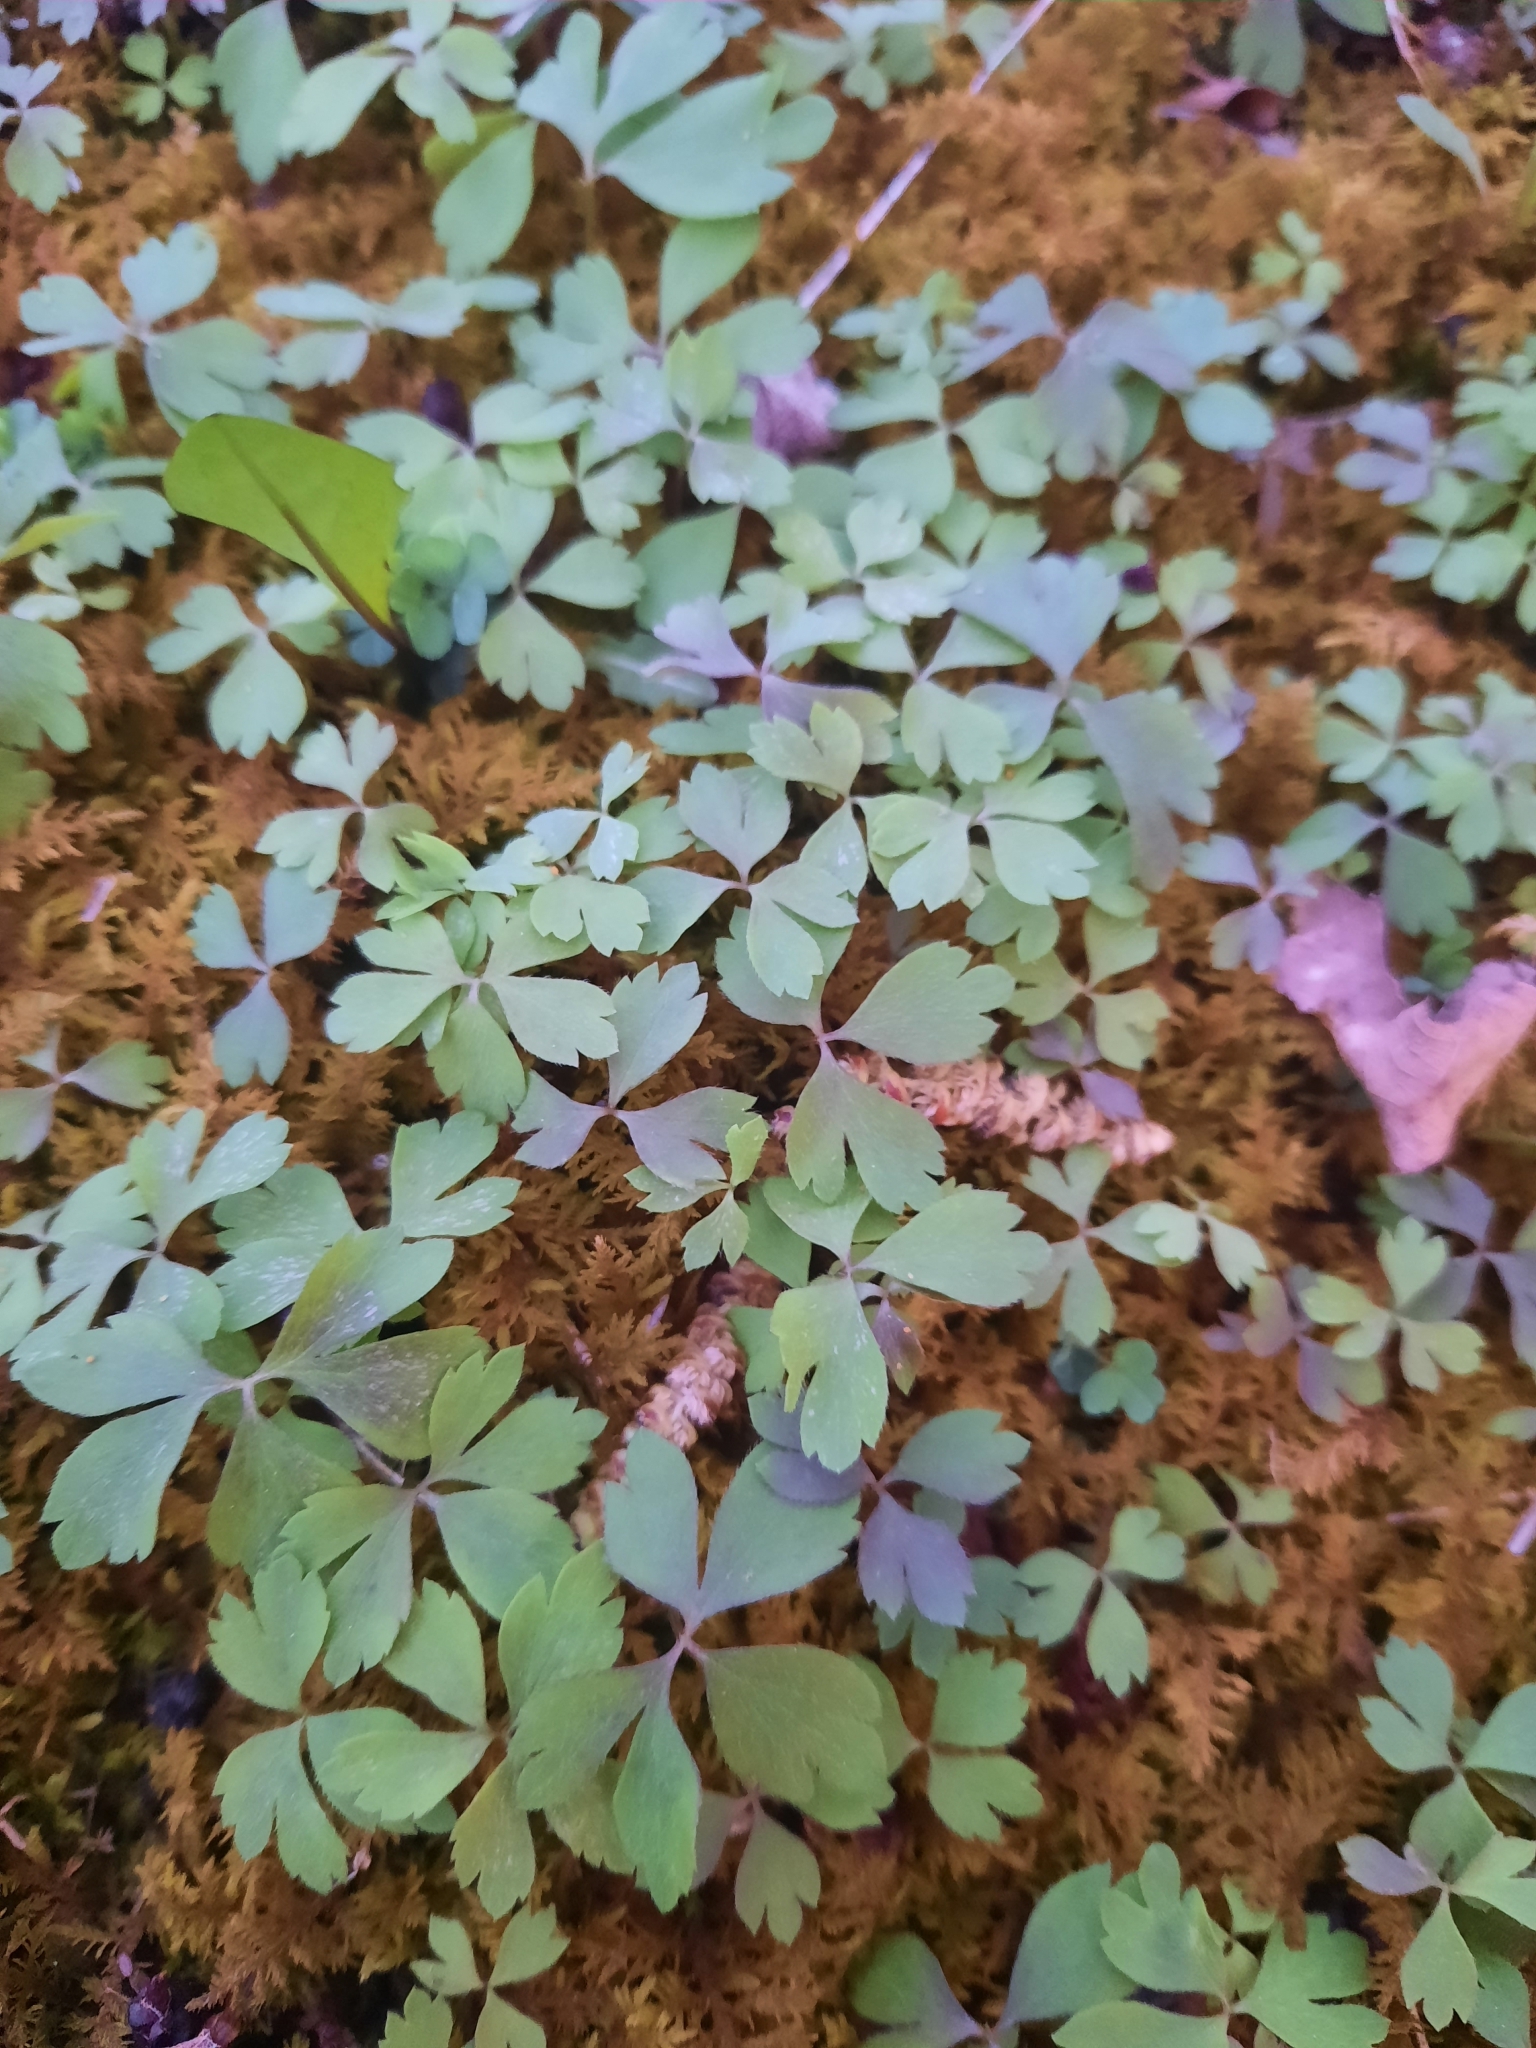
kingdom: Plantae
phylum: Tracheophyta
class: Magnoliopsida
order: Ranunculales
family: Ranunculaceae
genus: Anemone
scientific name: Anemone quinquefolia
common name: Wood anemone
